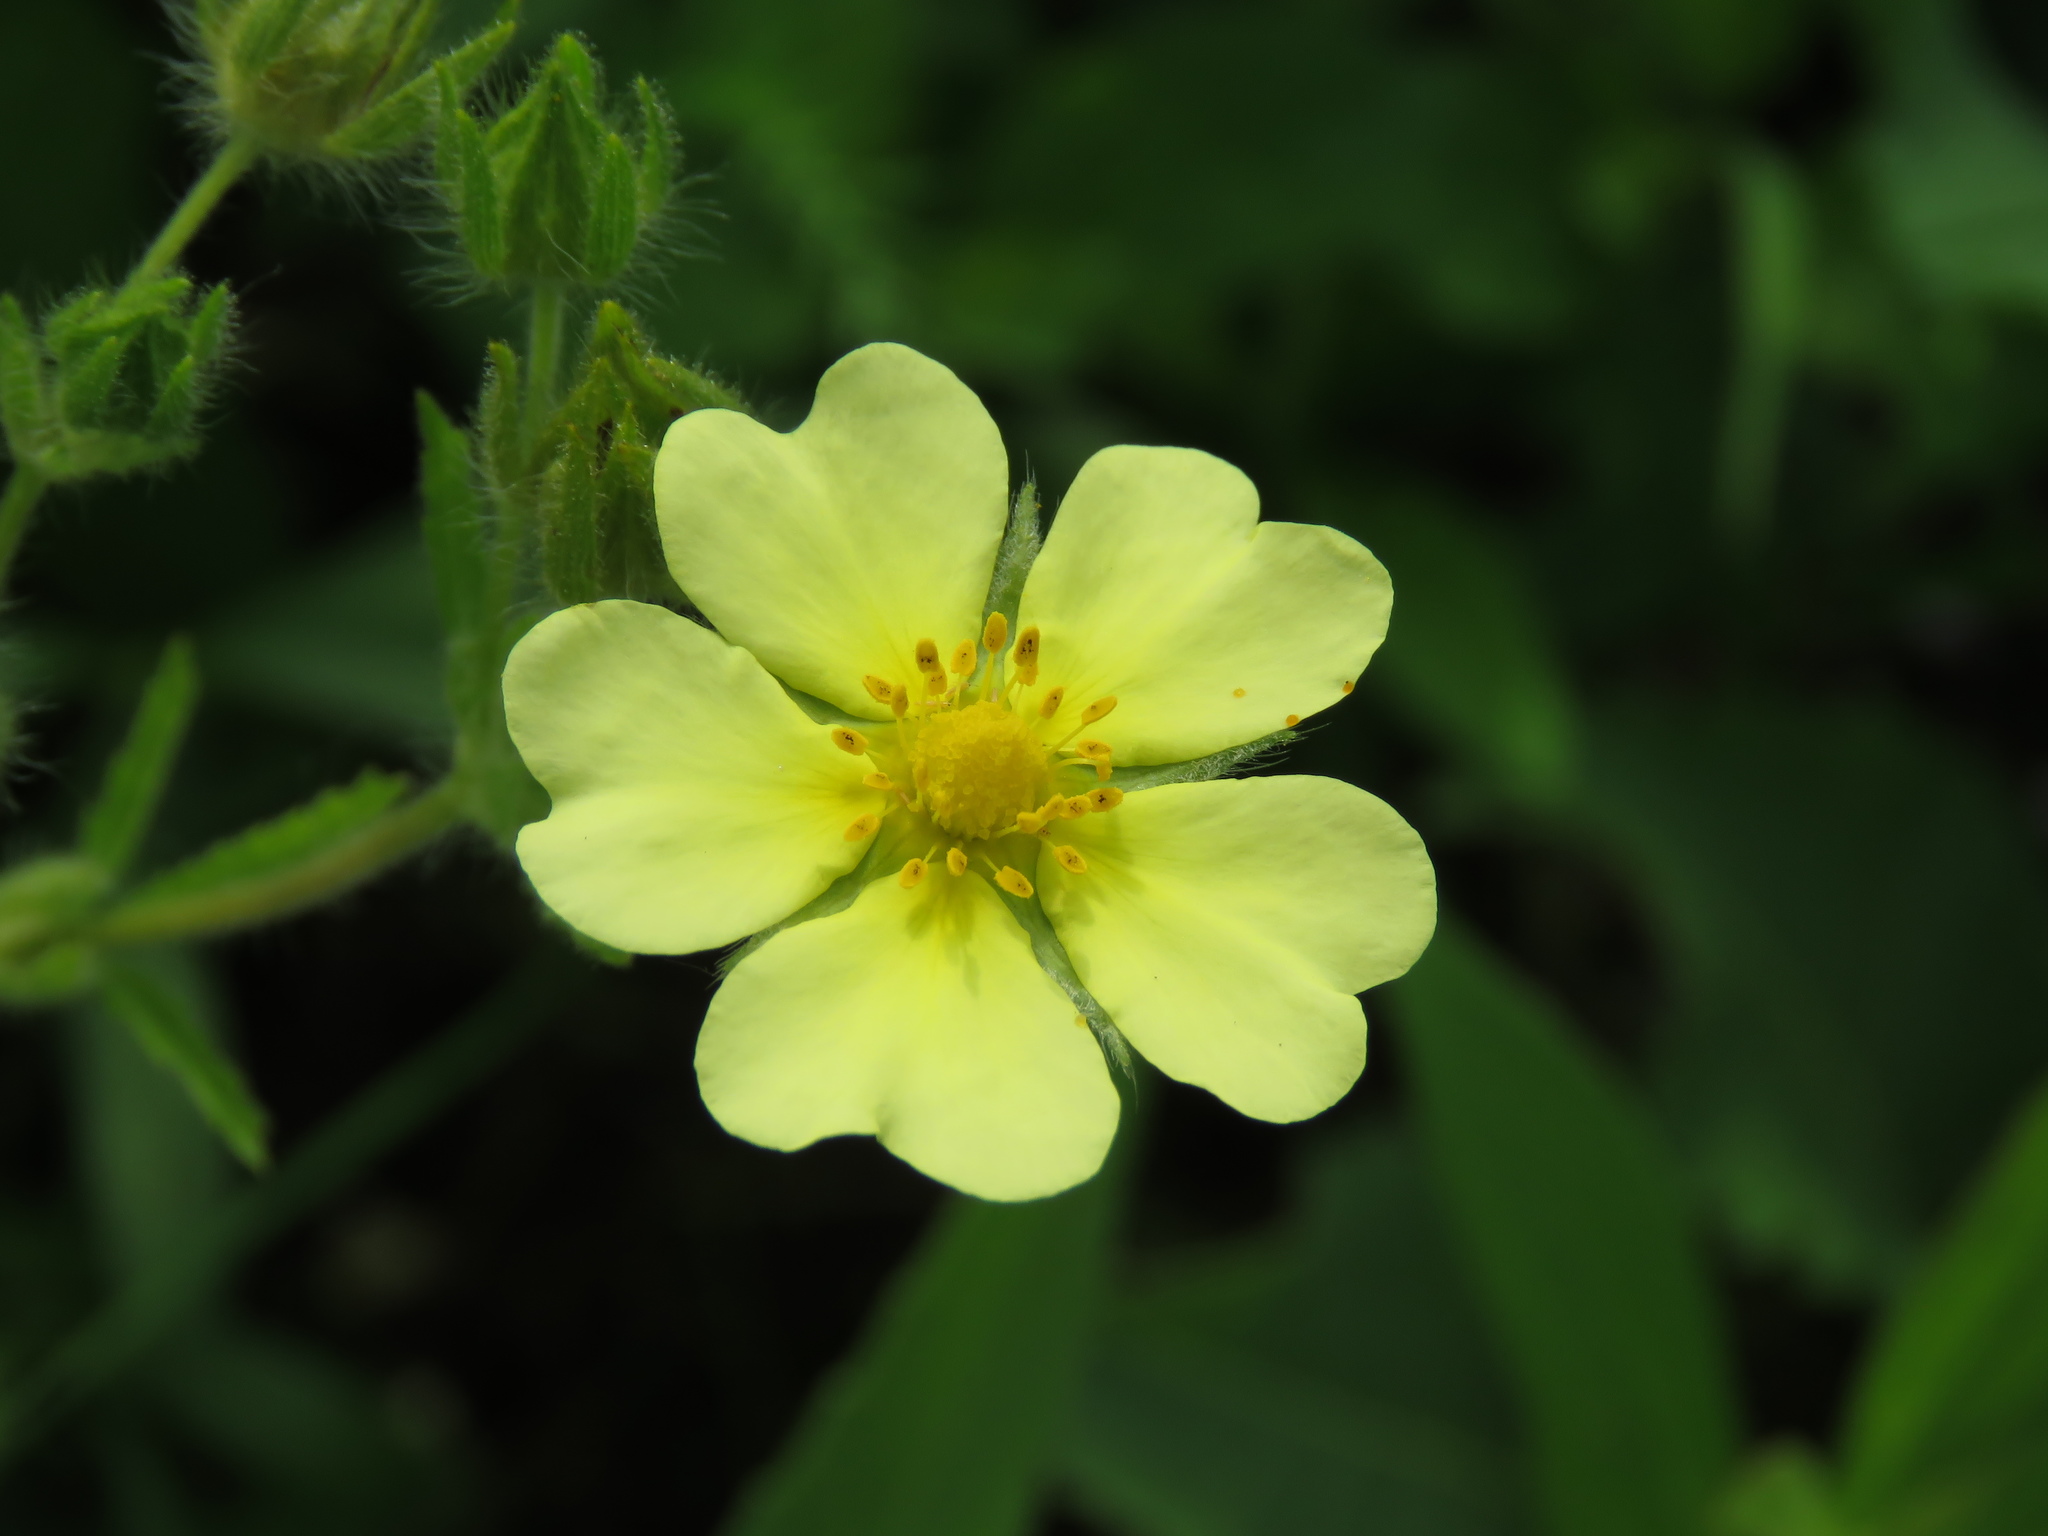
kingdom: Plantae
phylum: Tracheophyta
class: Magnoliopsida
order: Rosales
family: Rosaceae
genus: Potentilla
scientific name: Potentilla recta
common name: Sulphur cinquefoil
